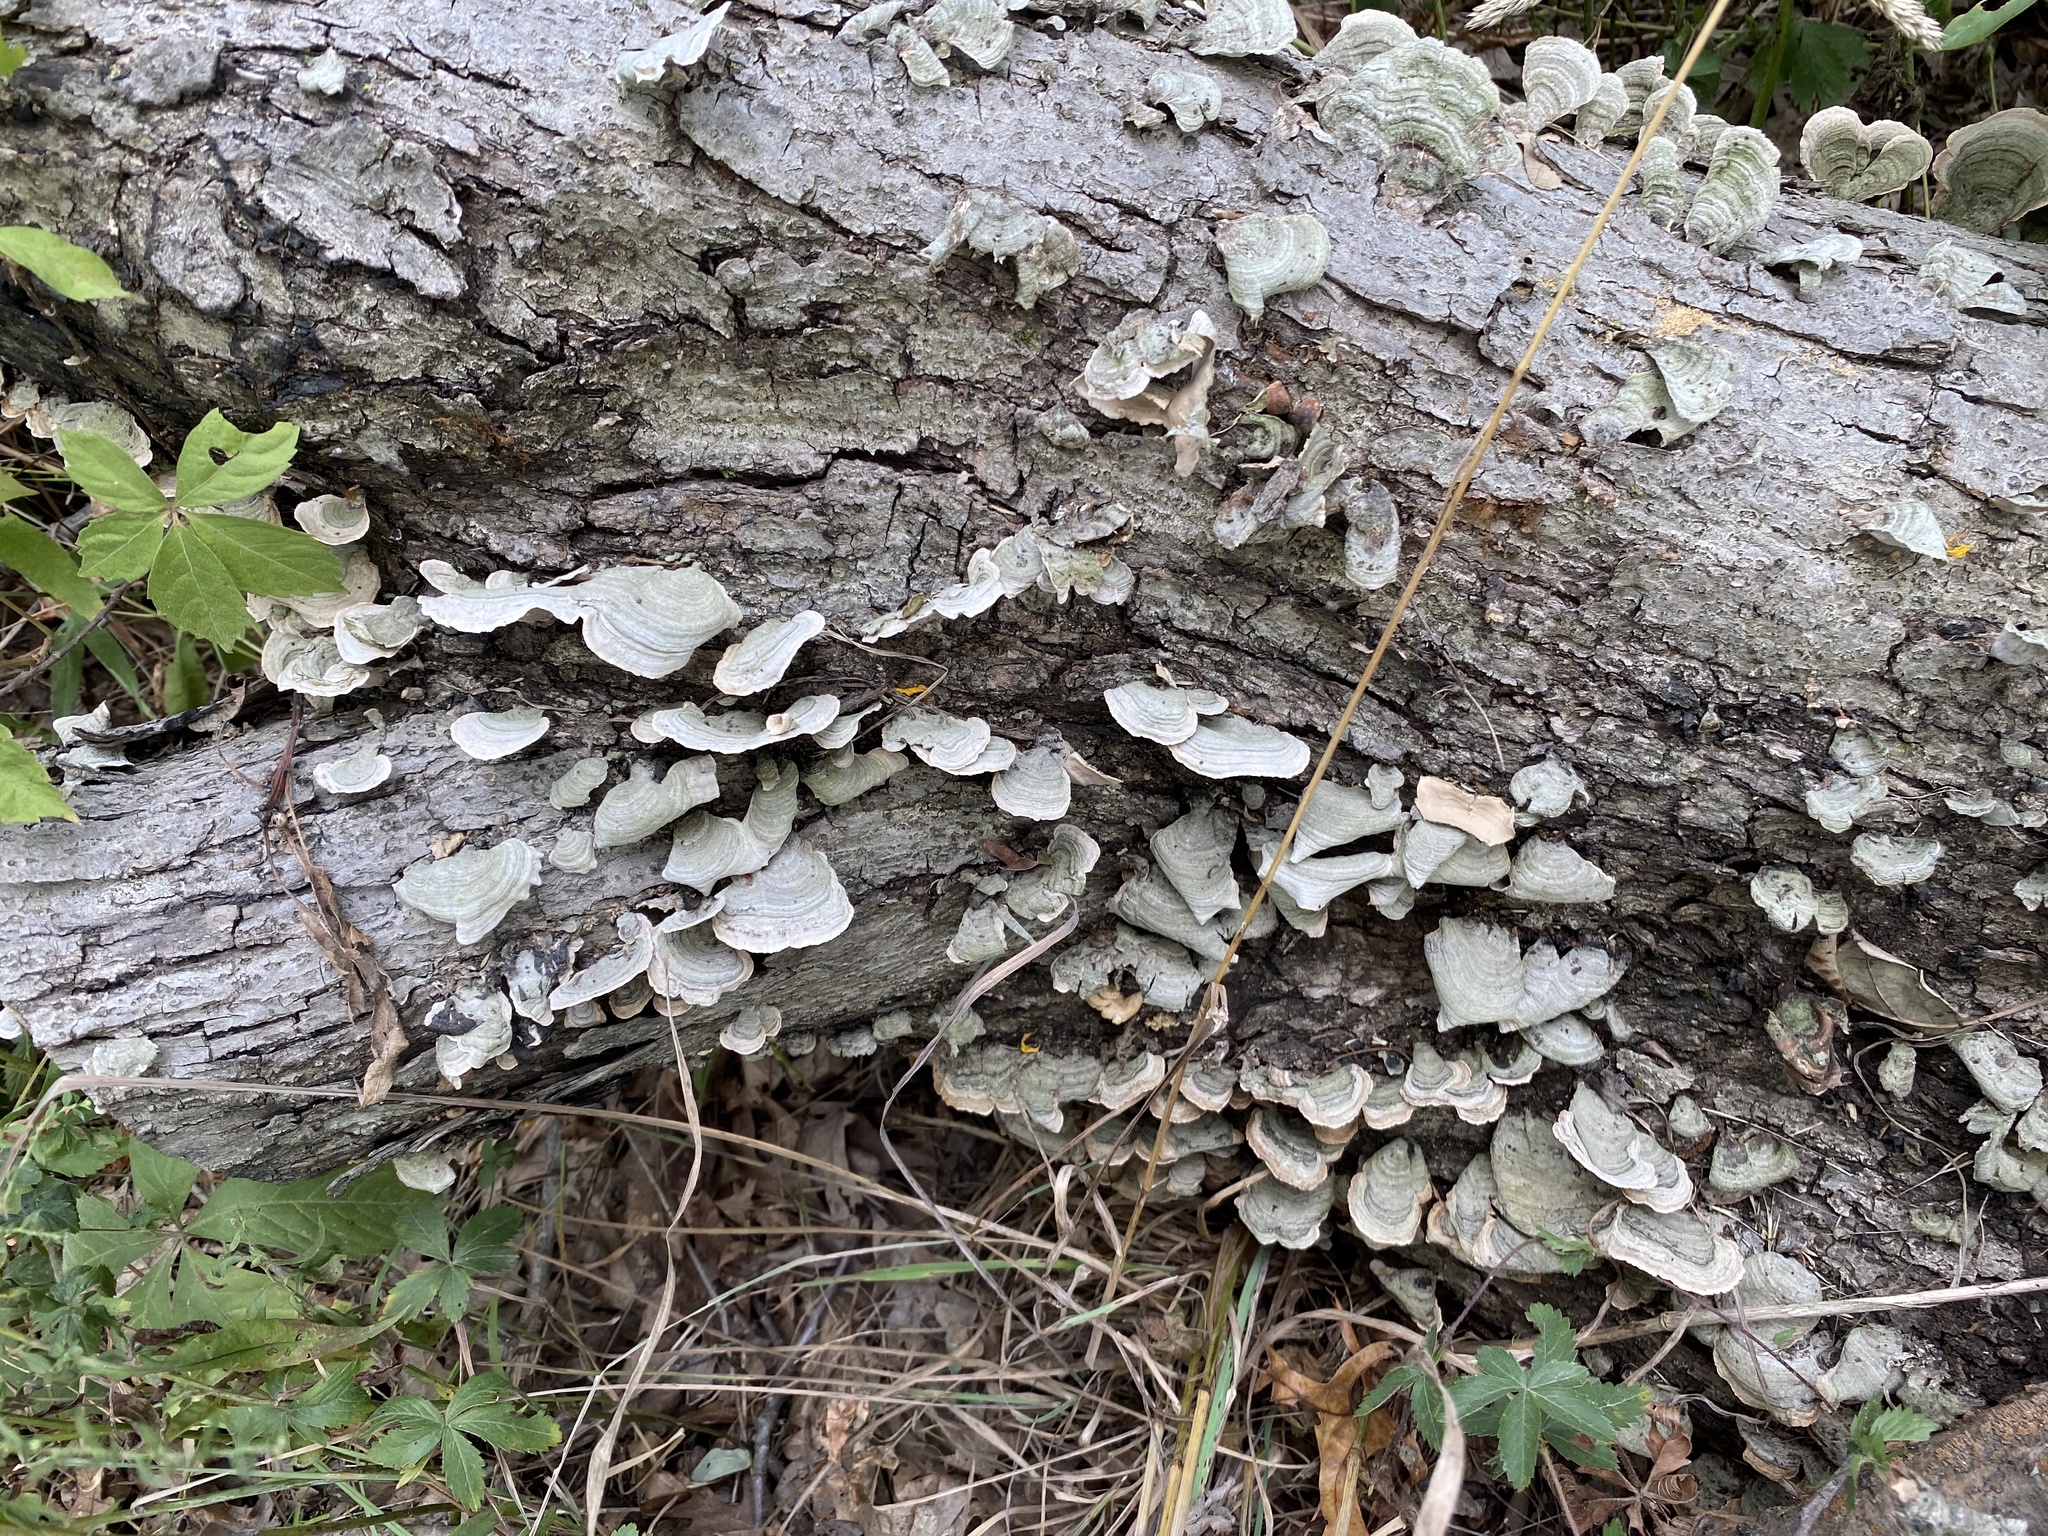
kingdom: Fungi
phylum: Basidiomycota
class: Agaricomycetes
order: Russulales
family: Stereaceae
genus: Stereum
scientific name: Stereum ostrea
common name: False turkeytail
